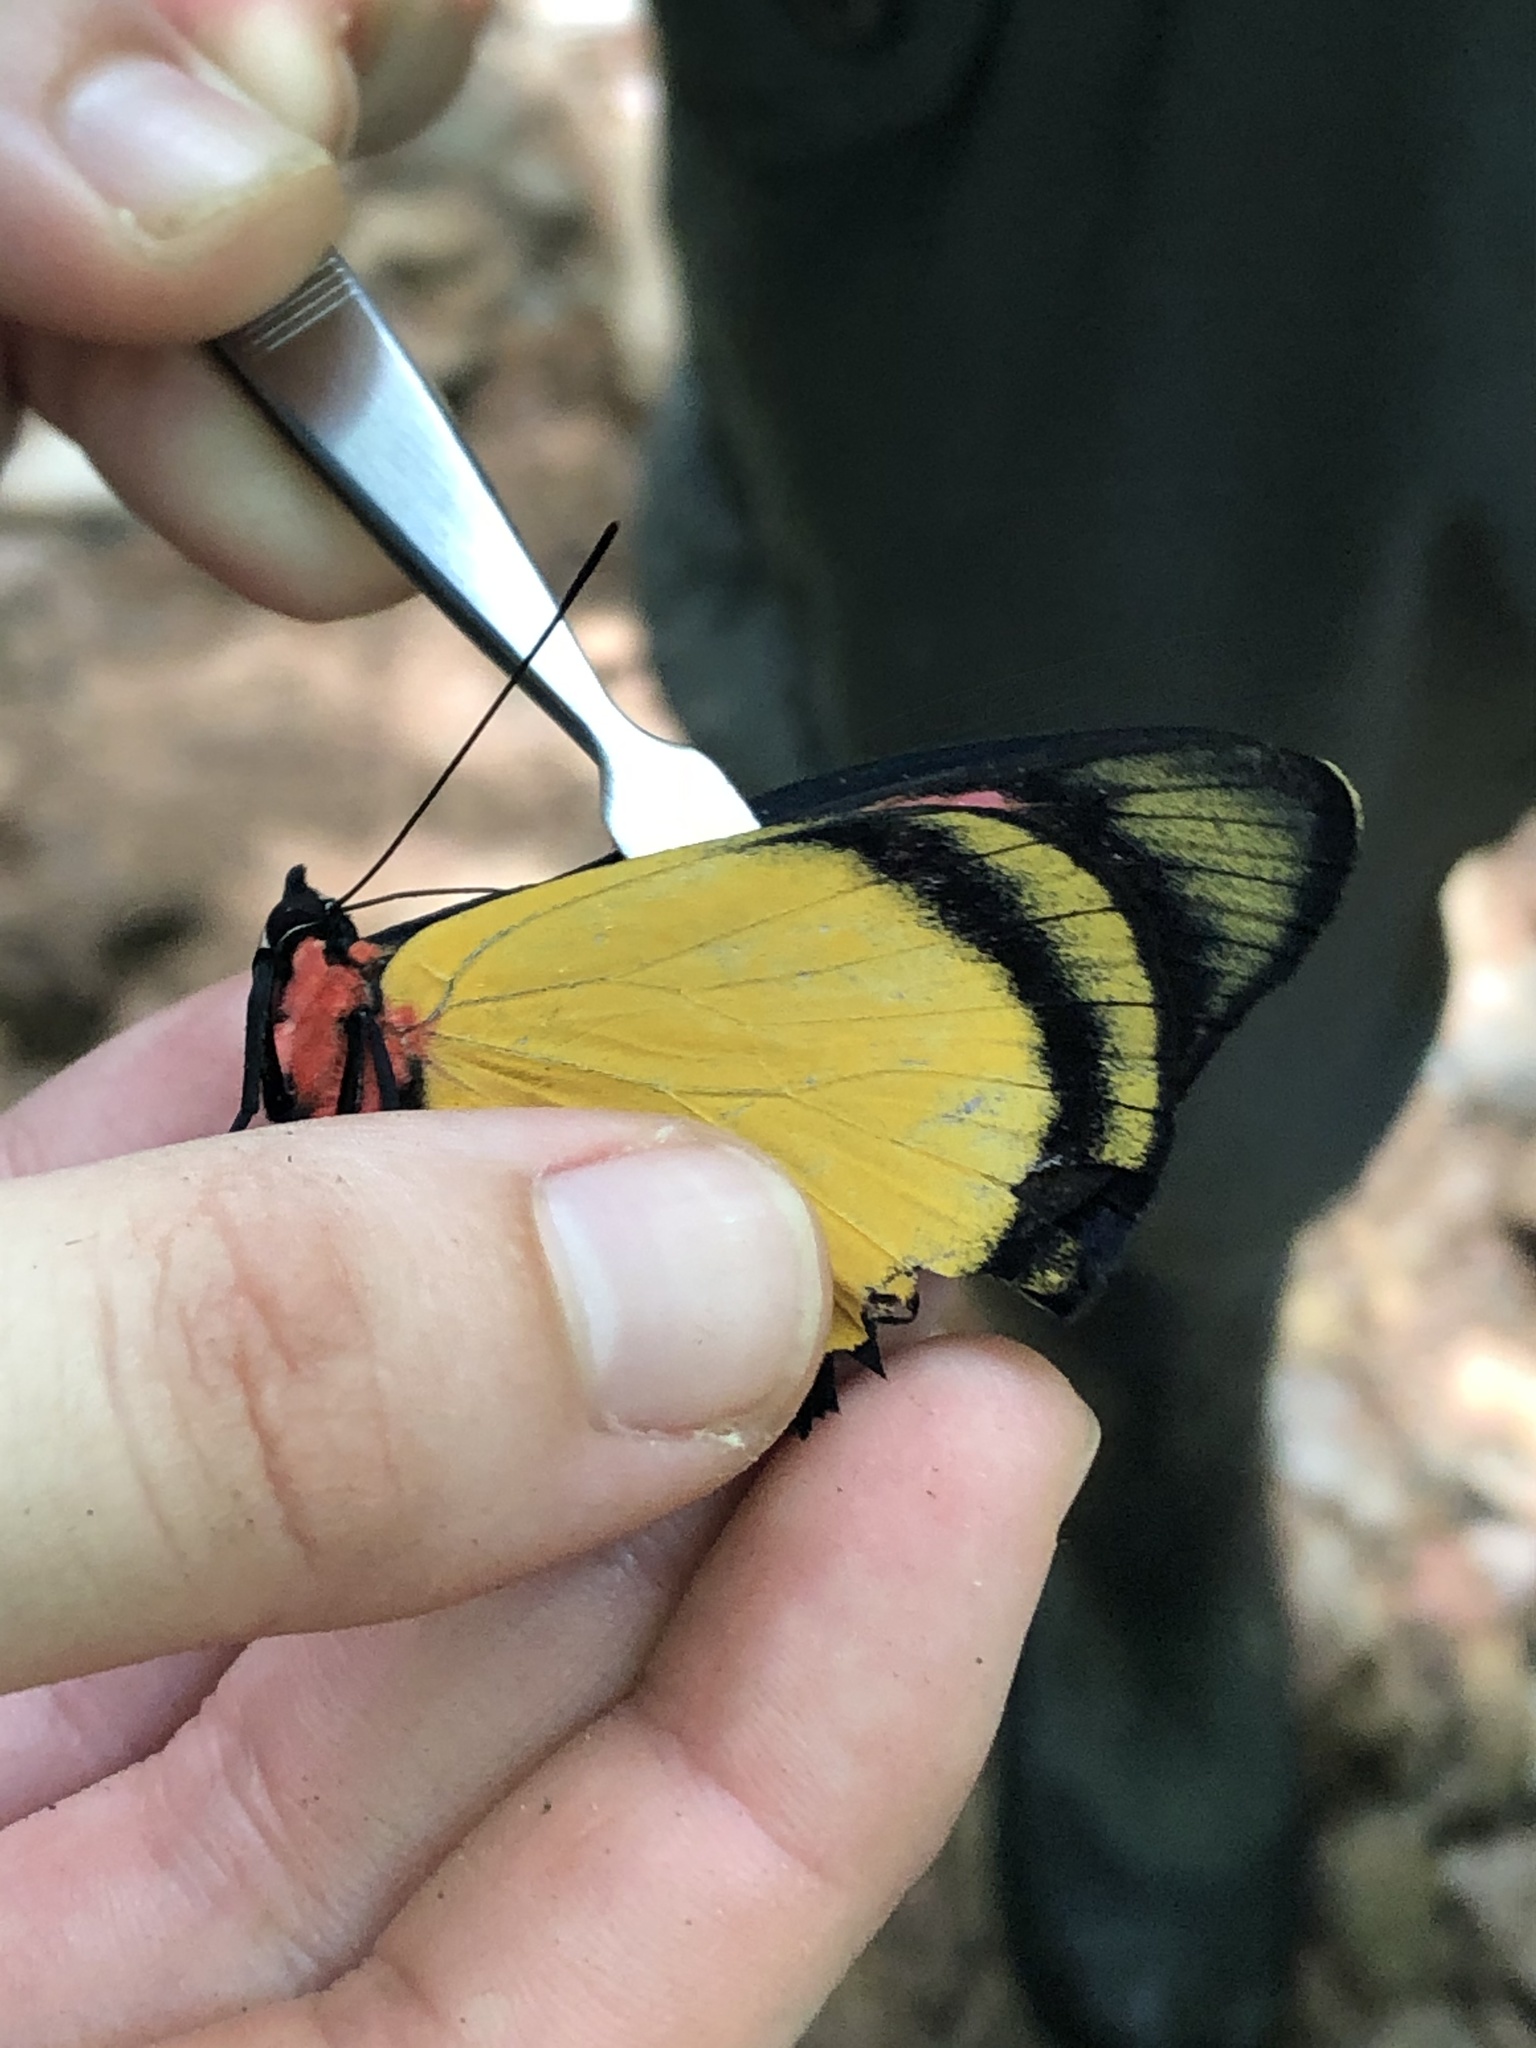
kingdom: Animalia
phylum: Arthropoda
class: Insecta
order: Lepidoptera
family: Nymphalidae
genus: Batesia
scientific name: Batesia hypochlora
